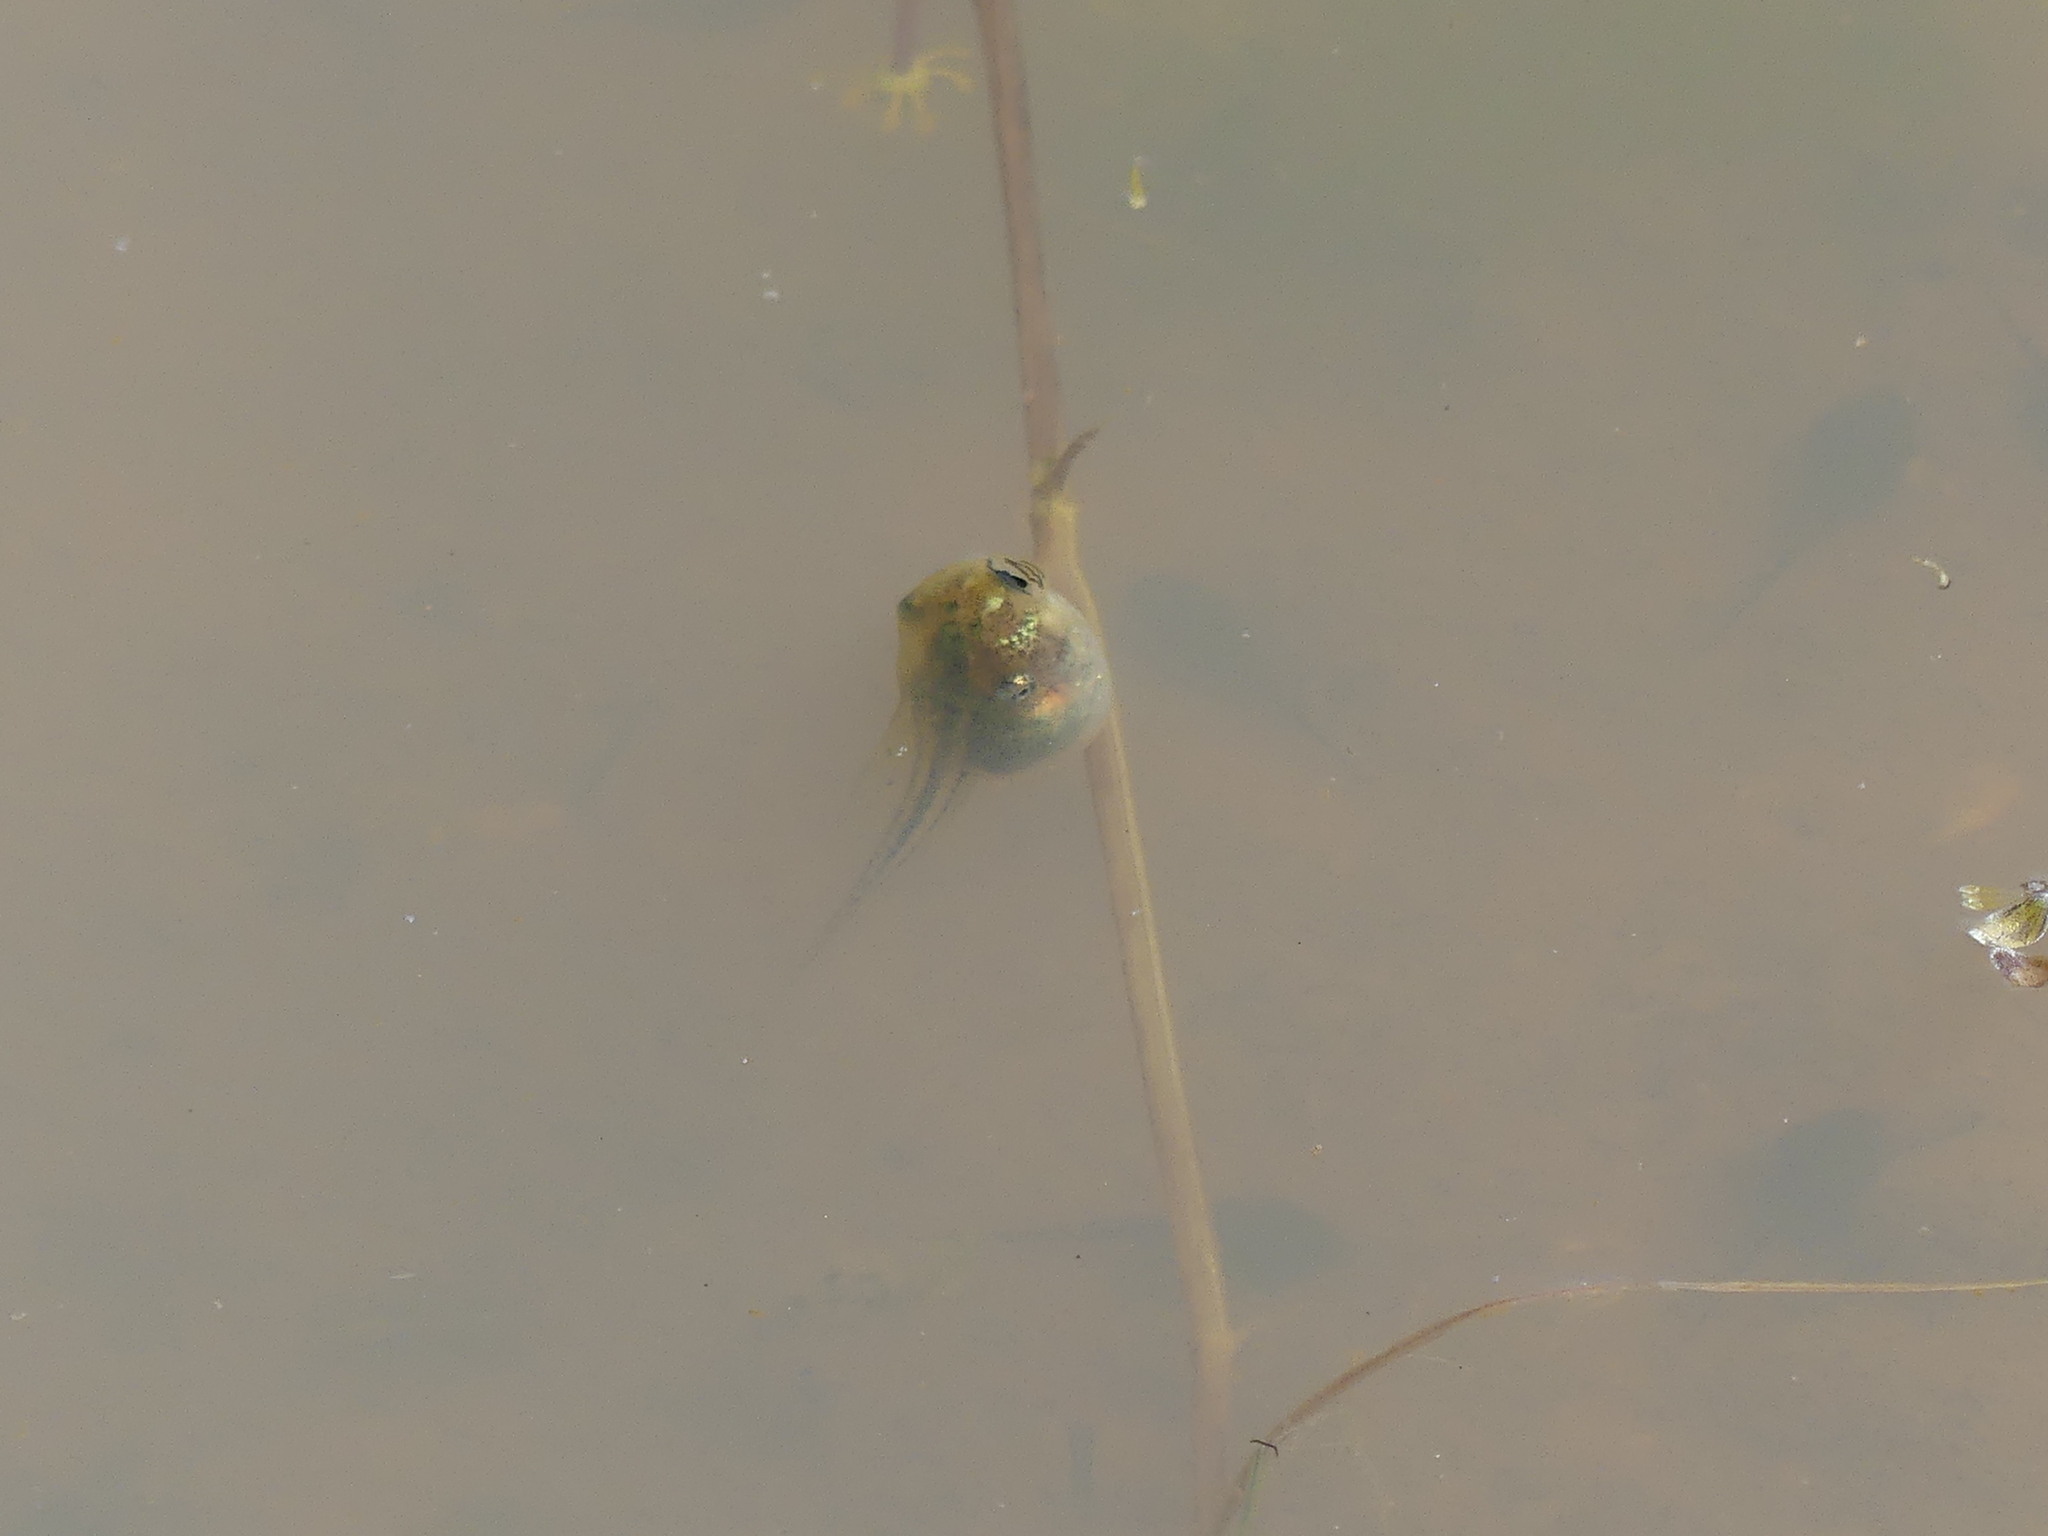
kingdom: Animalia
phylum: Chordata
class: Amphibia
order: Anura
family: Hylidae
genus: Hyla
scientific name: Hyla meridionalis
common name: Stripeless tree frog
